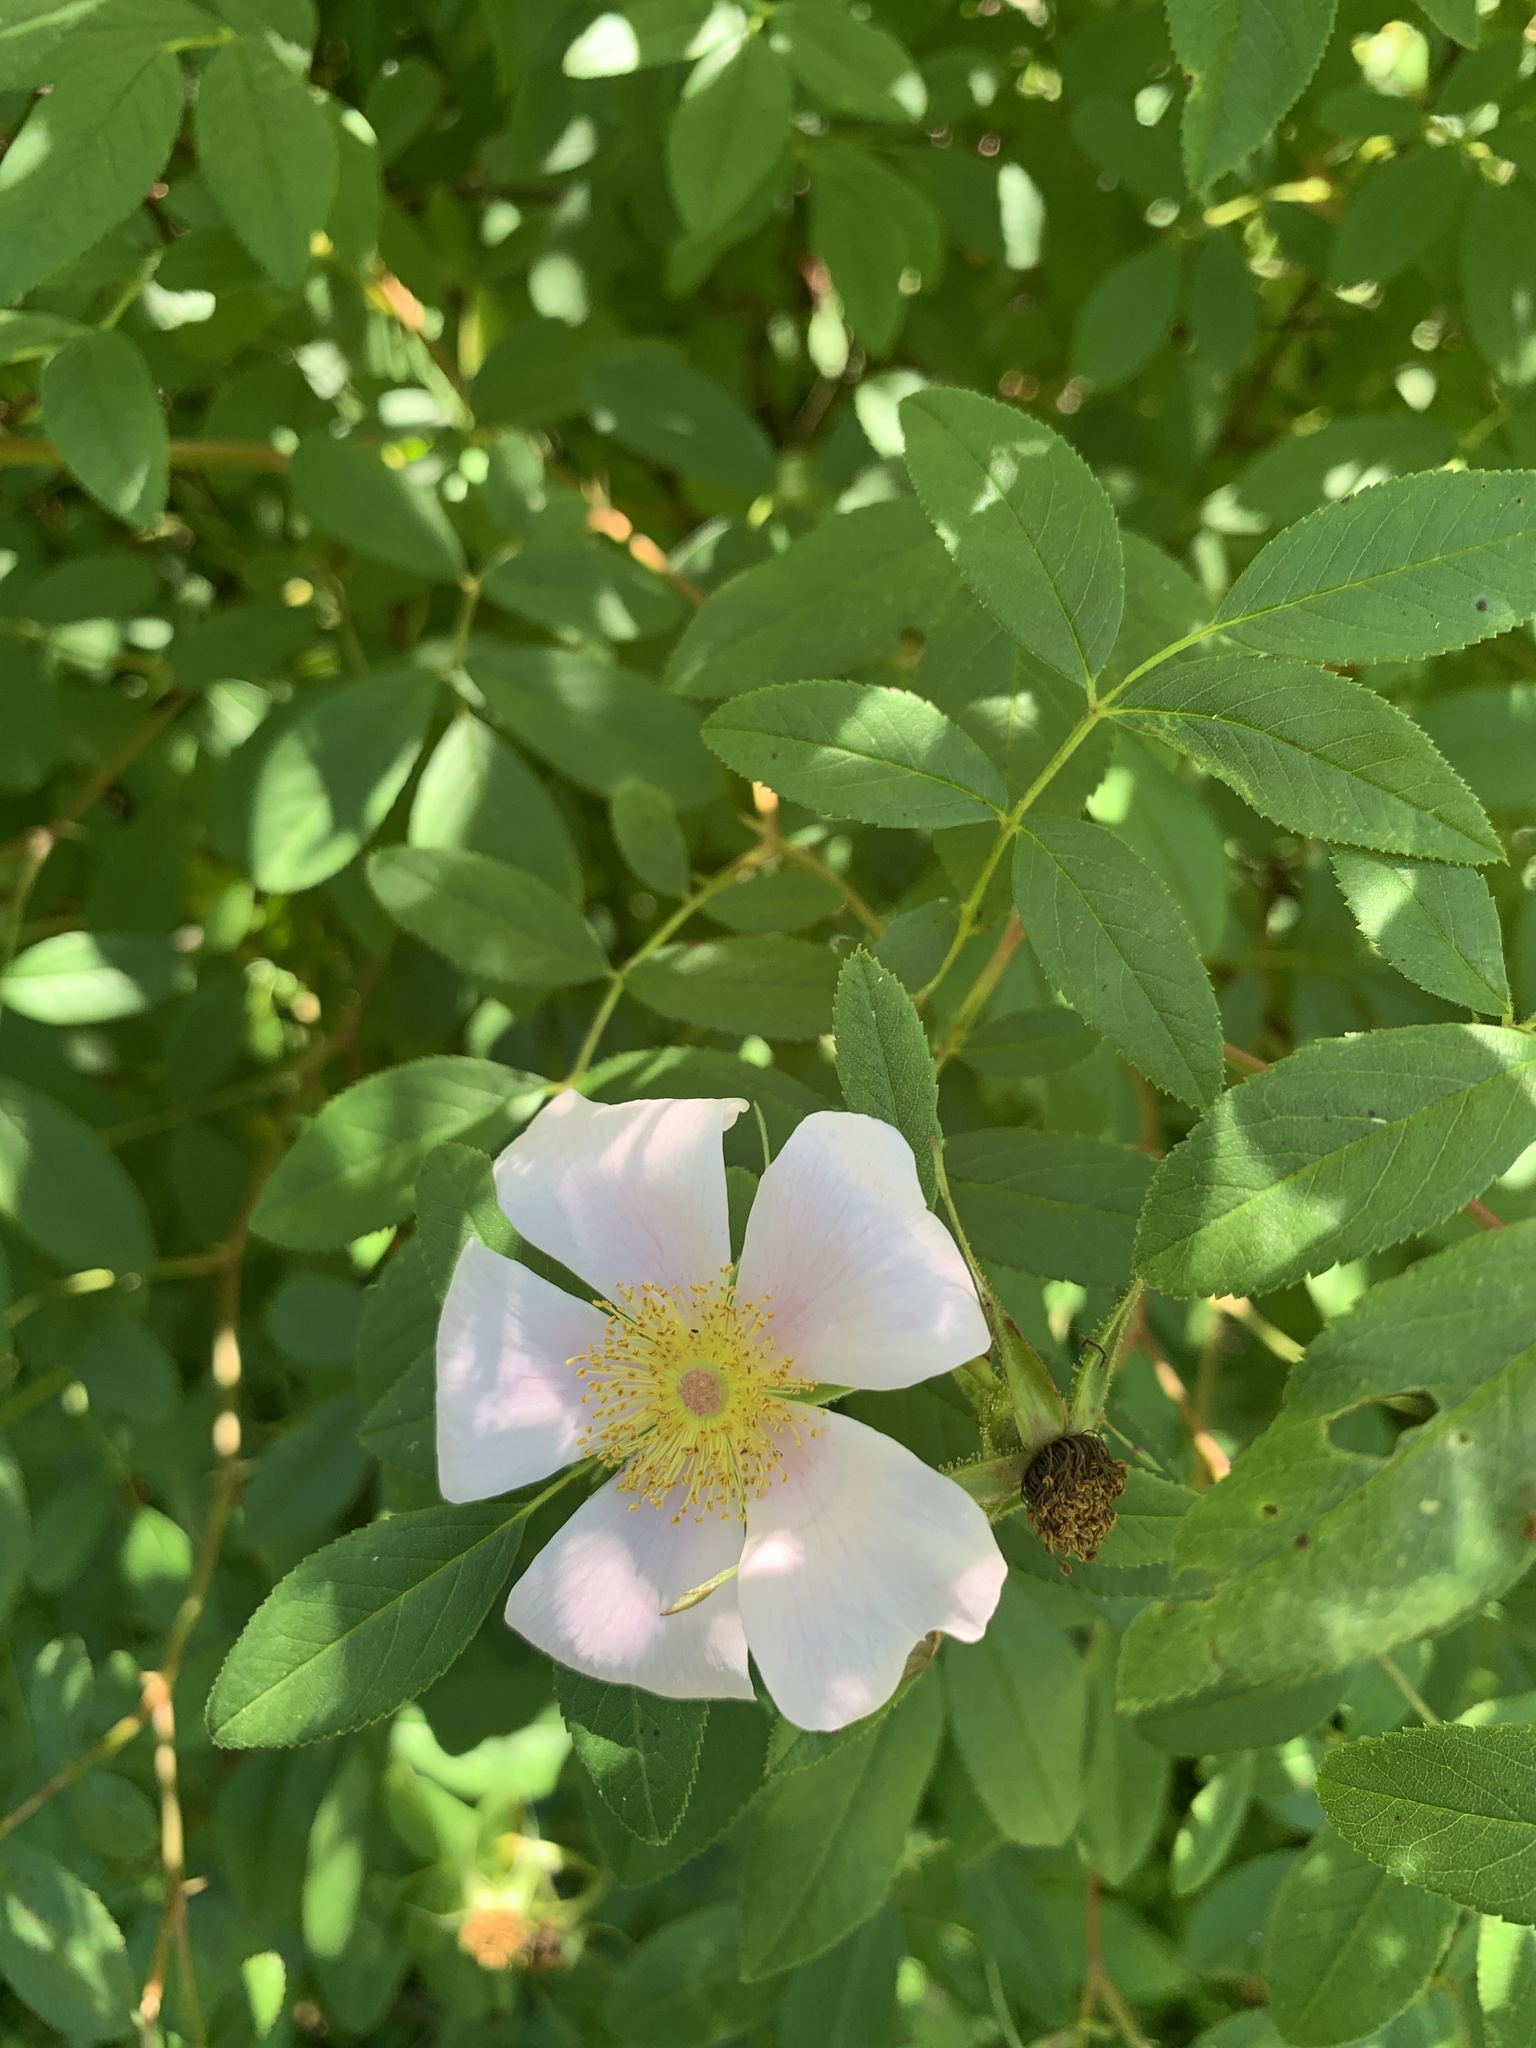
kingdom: Plantae
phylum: Tracheophyta
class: Magnoliopsida
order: Rosales
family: Rosaceae
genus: Rosa
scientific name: Rosa palustris
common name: Swamp rose
